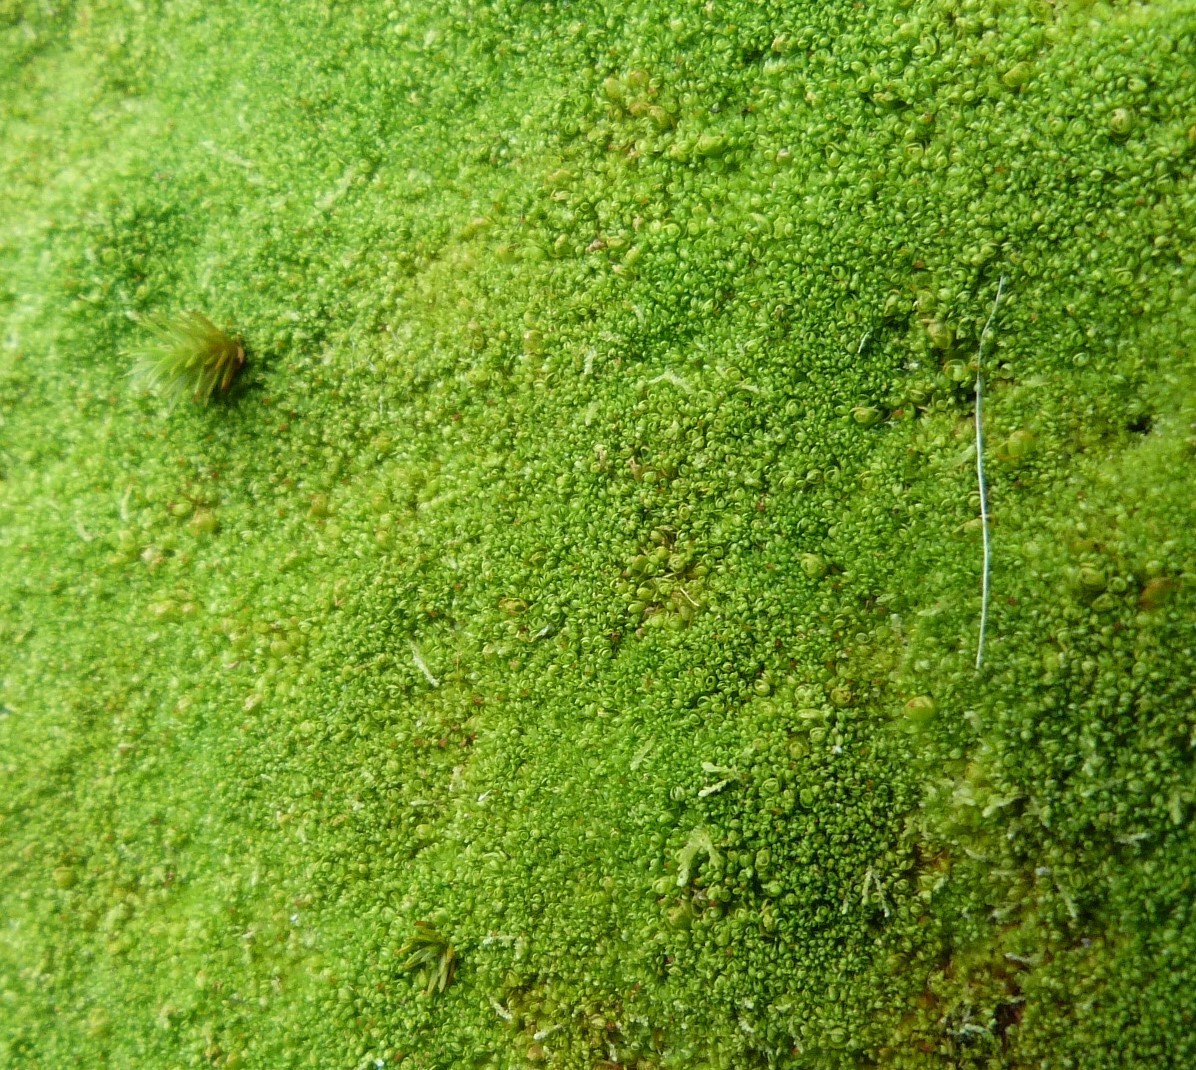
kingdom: Plantae
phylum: Marchantiophyta
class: Jungermanniopsida
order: Jungermanniales
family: Solenostomataceae
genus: Solenostoma
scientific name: Solenostoma inundatum
